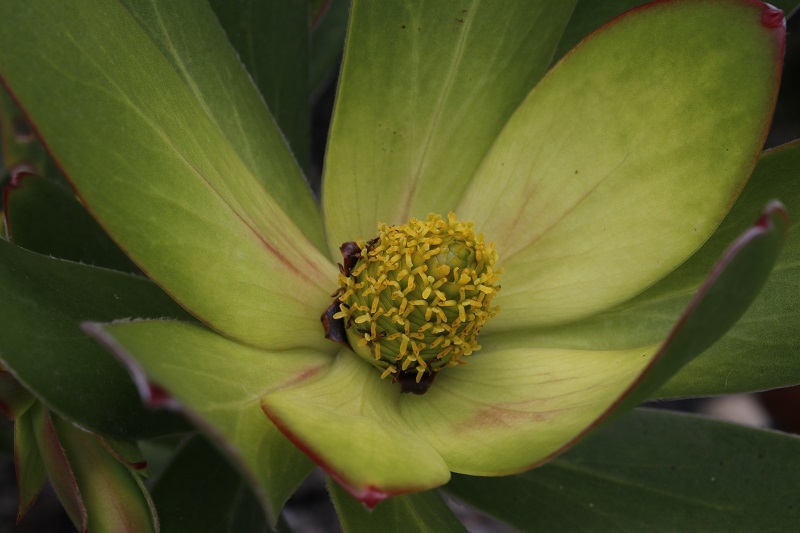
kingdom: Plantae
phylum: Tracheophyta
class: Magnoliopsida
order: Proteales
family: Proteaceae
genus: Leucadendron
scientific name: Leucadendron gandogeri
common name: Broad-leaf conebush
